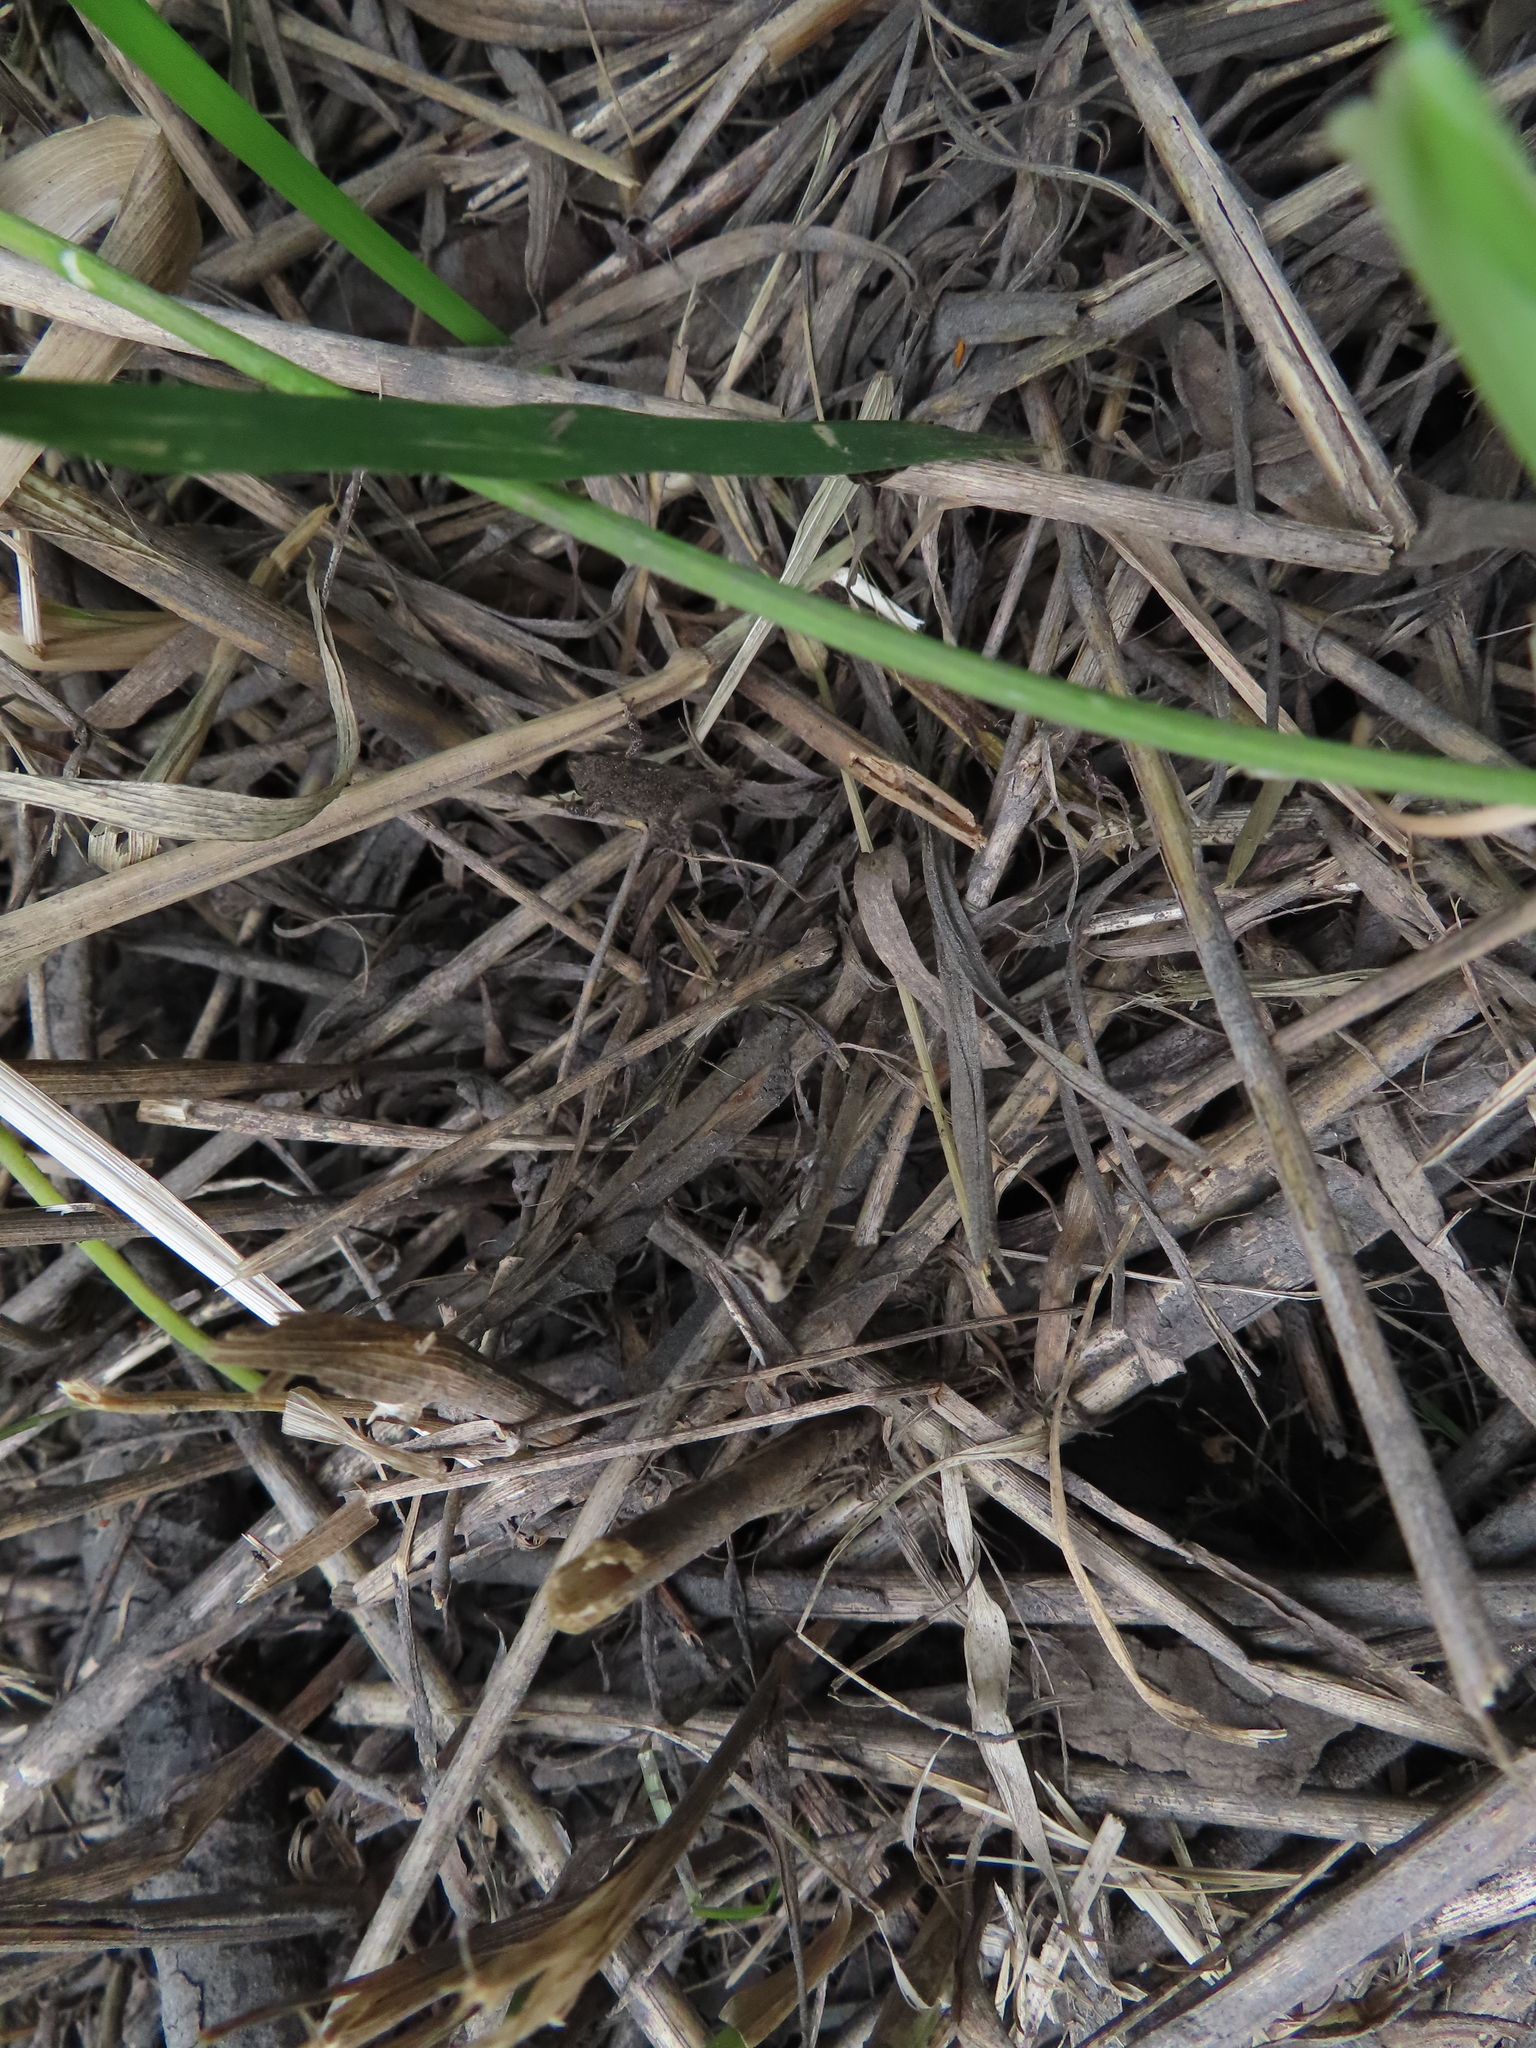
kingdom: Animalia
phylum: Chordata
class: Amphibia
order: Anura
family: Bufonidae
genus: Anaxyrus
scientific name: Anaxyrus americanus
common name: American toad
